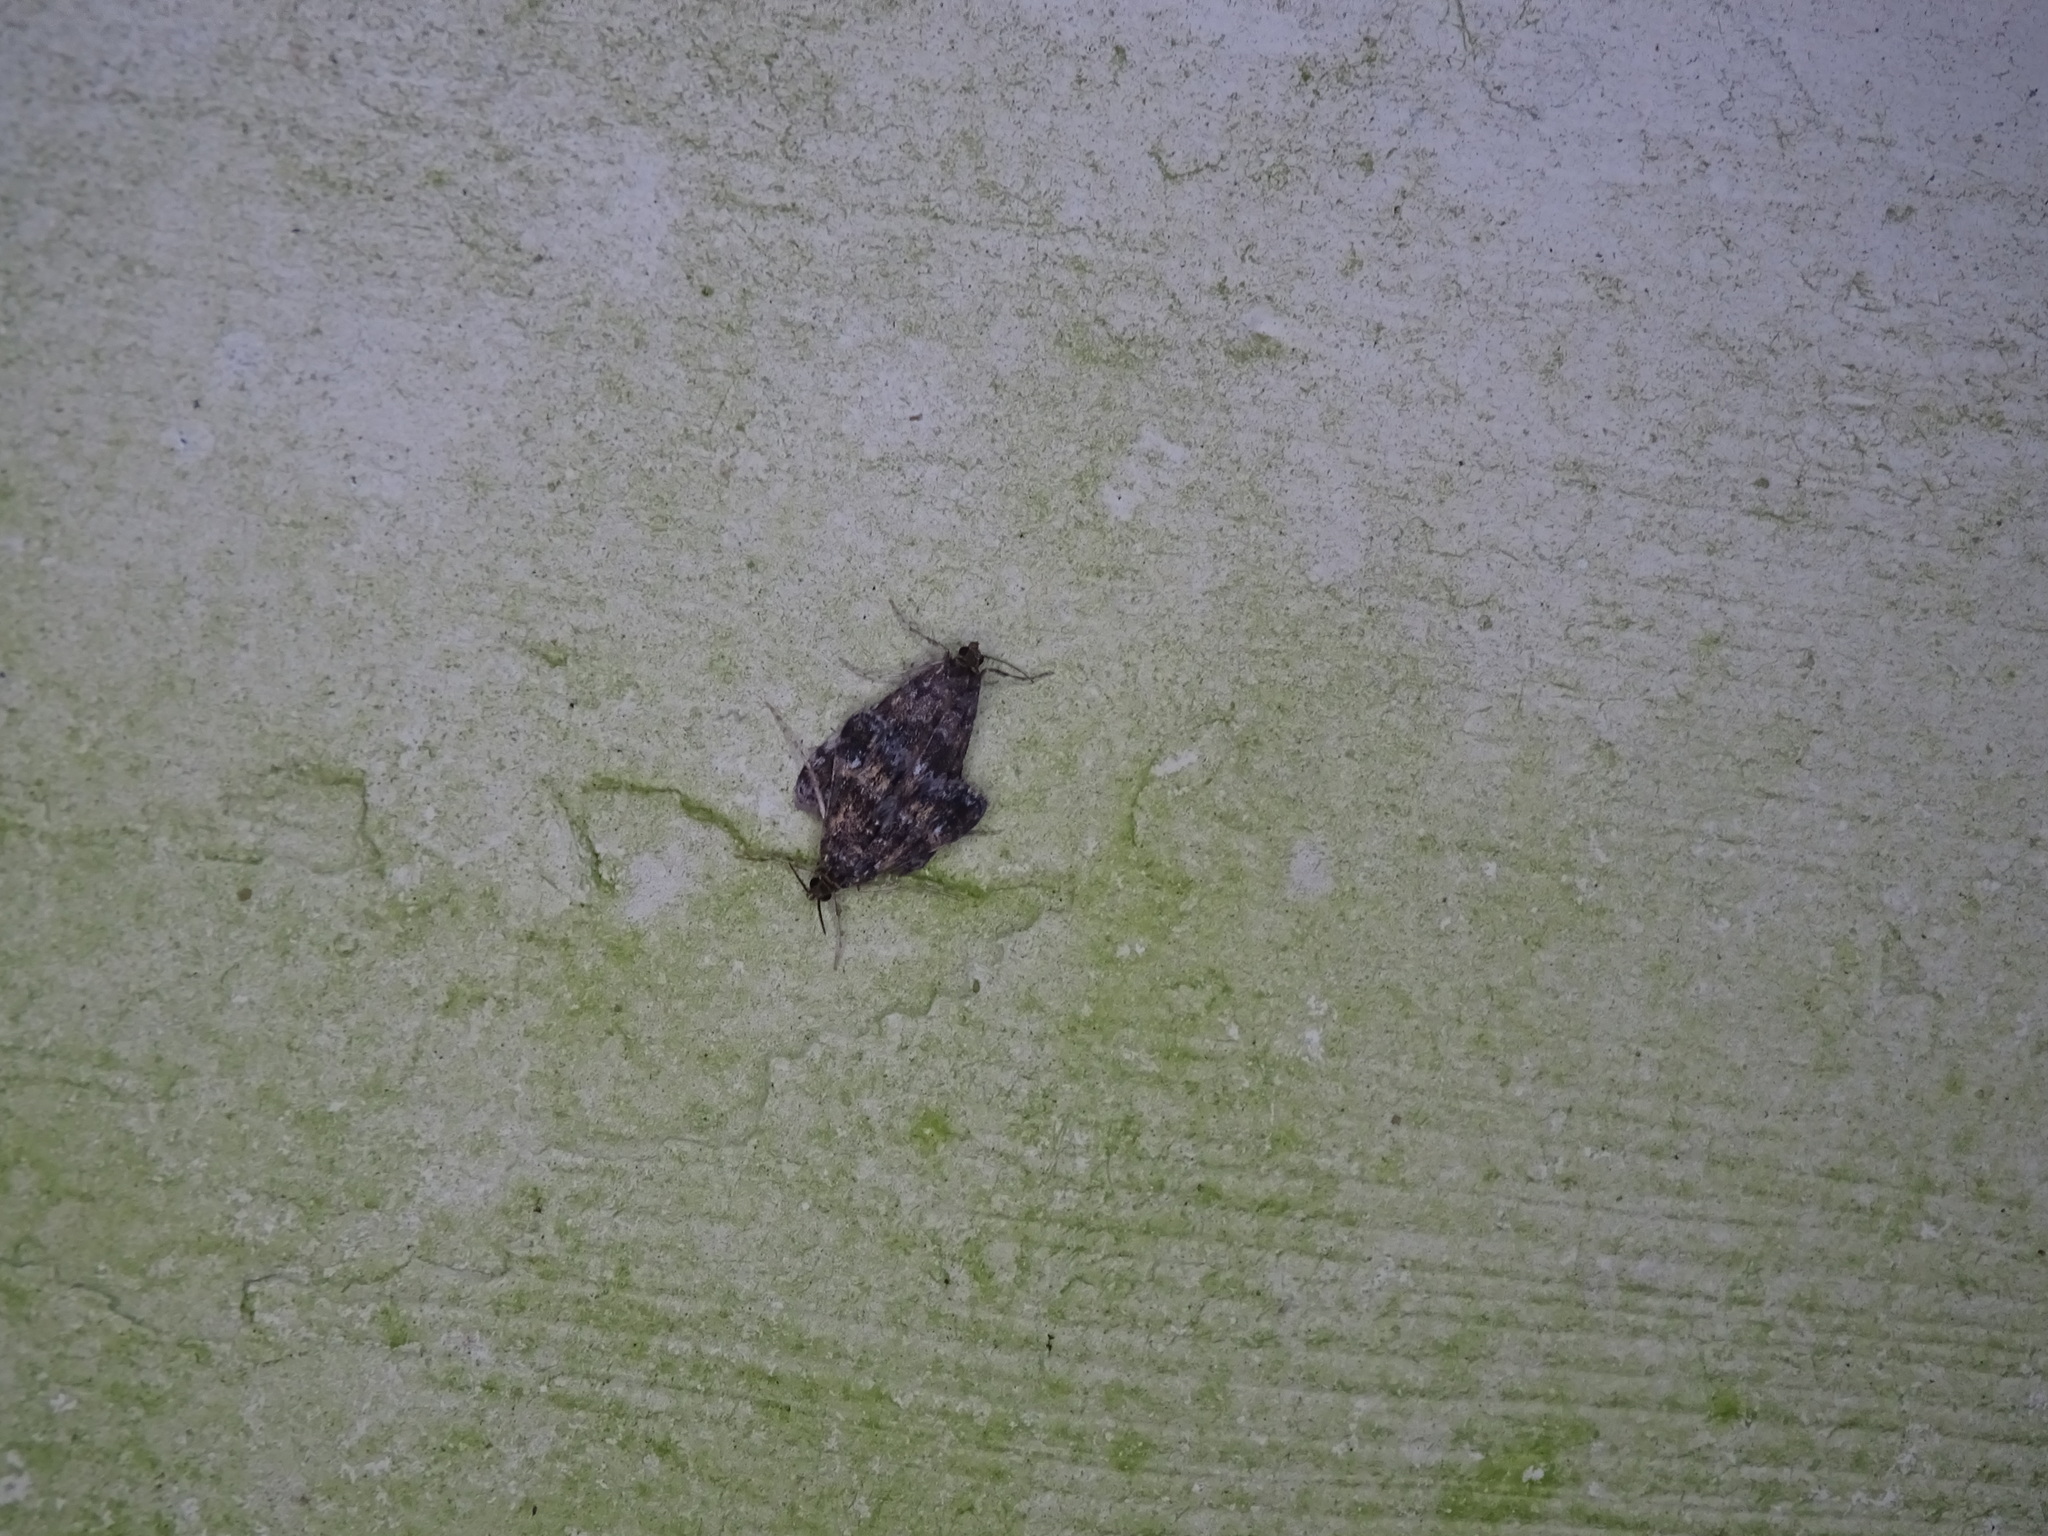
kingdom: Animalia
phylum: Arthropoda
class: Insecta
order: Lepidoptera
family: Crambidae
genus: Elophila
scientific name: Elophila obliteralis
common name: Waterlily leafcutter moth
